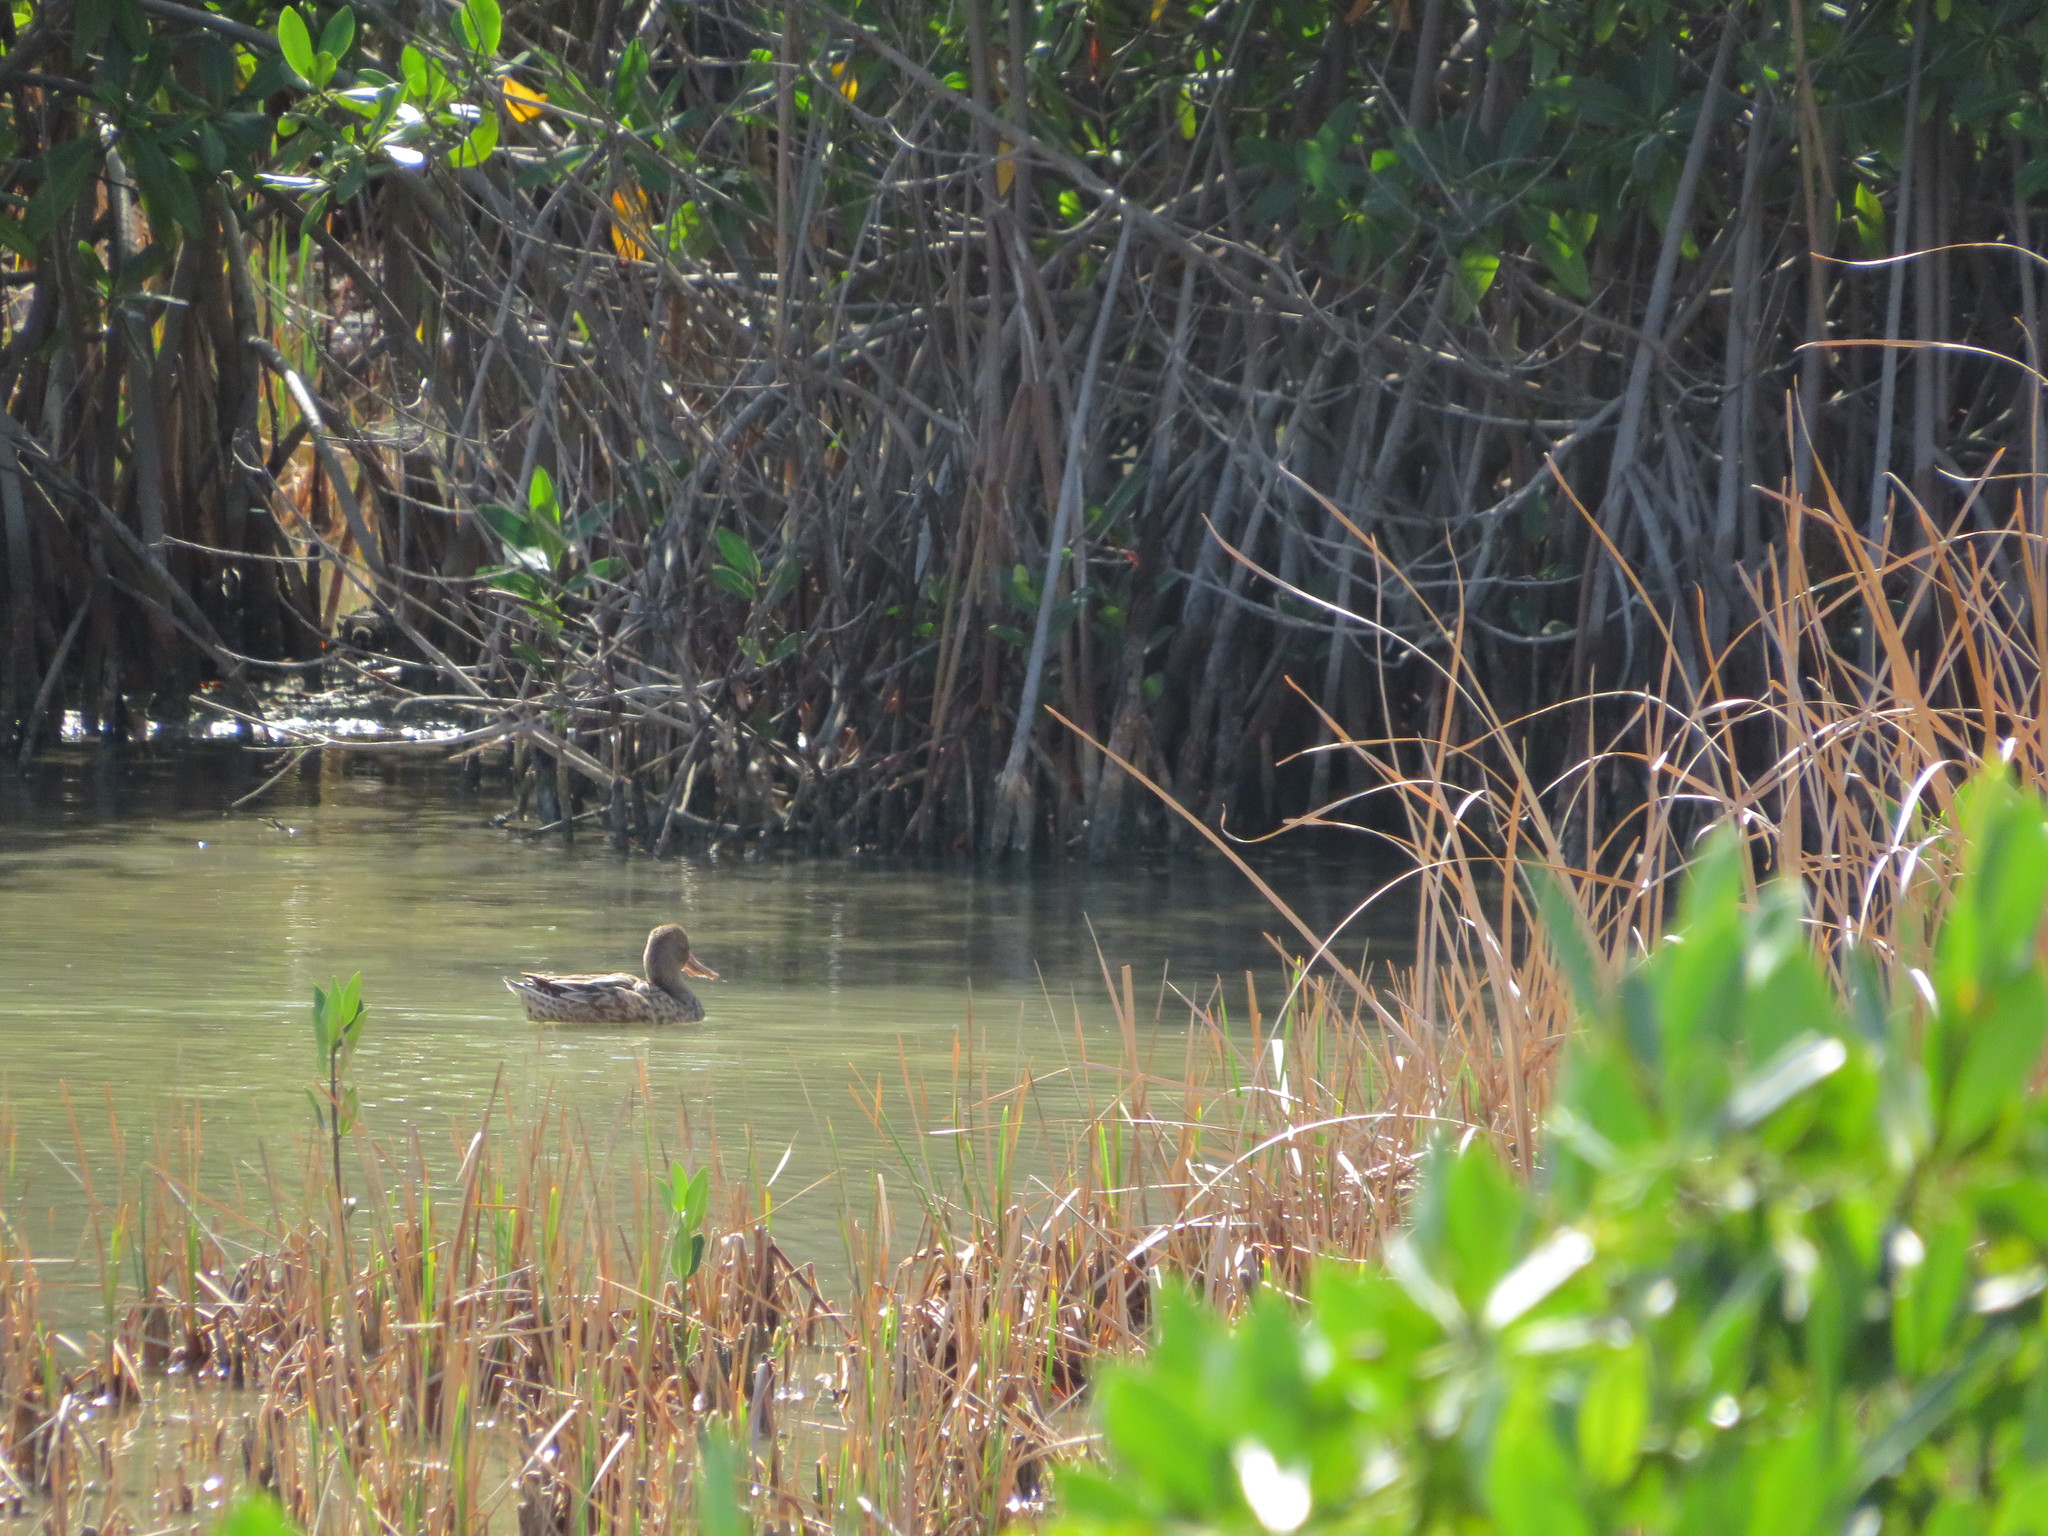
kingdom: Animalia
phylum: Chordata
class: Aves
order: Anseriformes
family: Anatidae
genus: Spatula
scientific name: Spatula clypeata
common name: Northern shoveler
